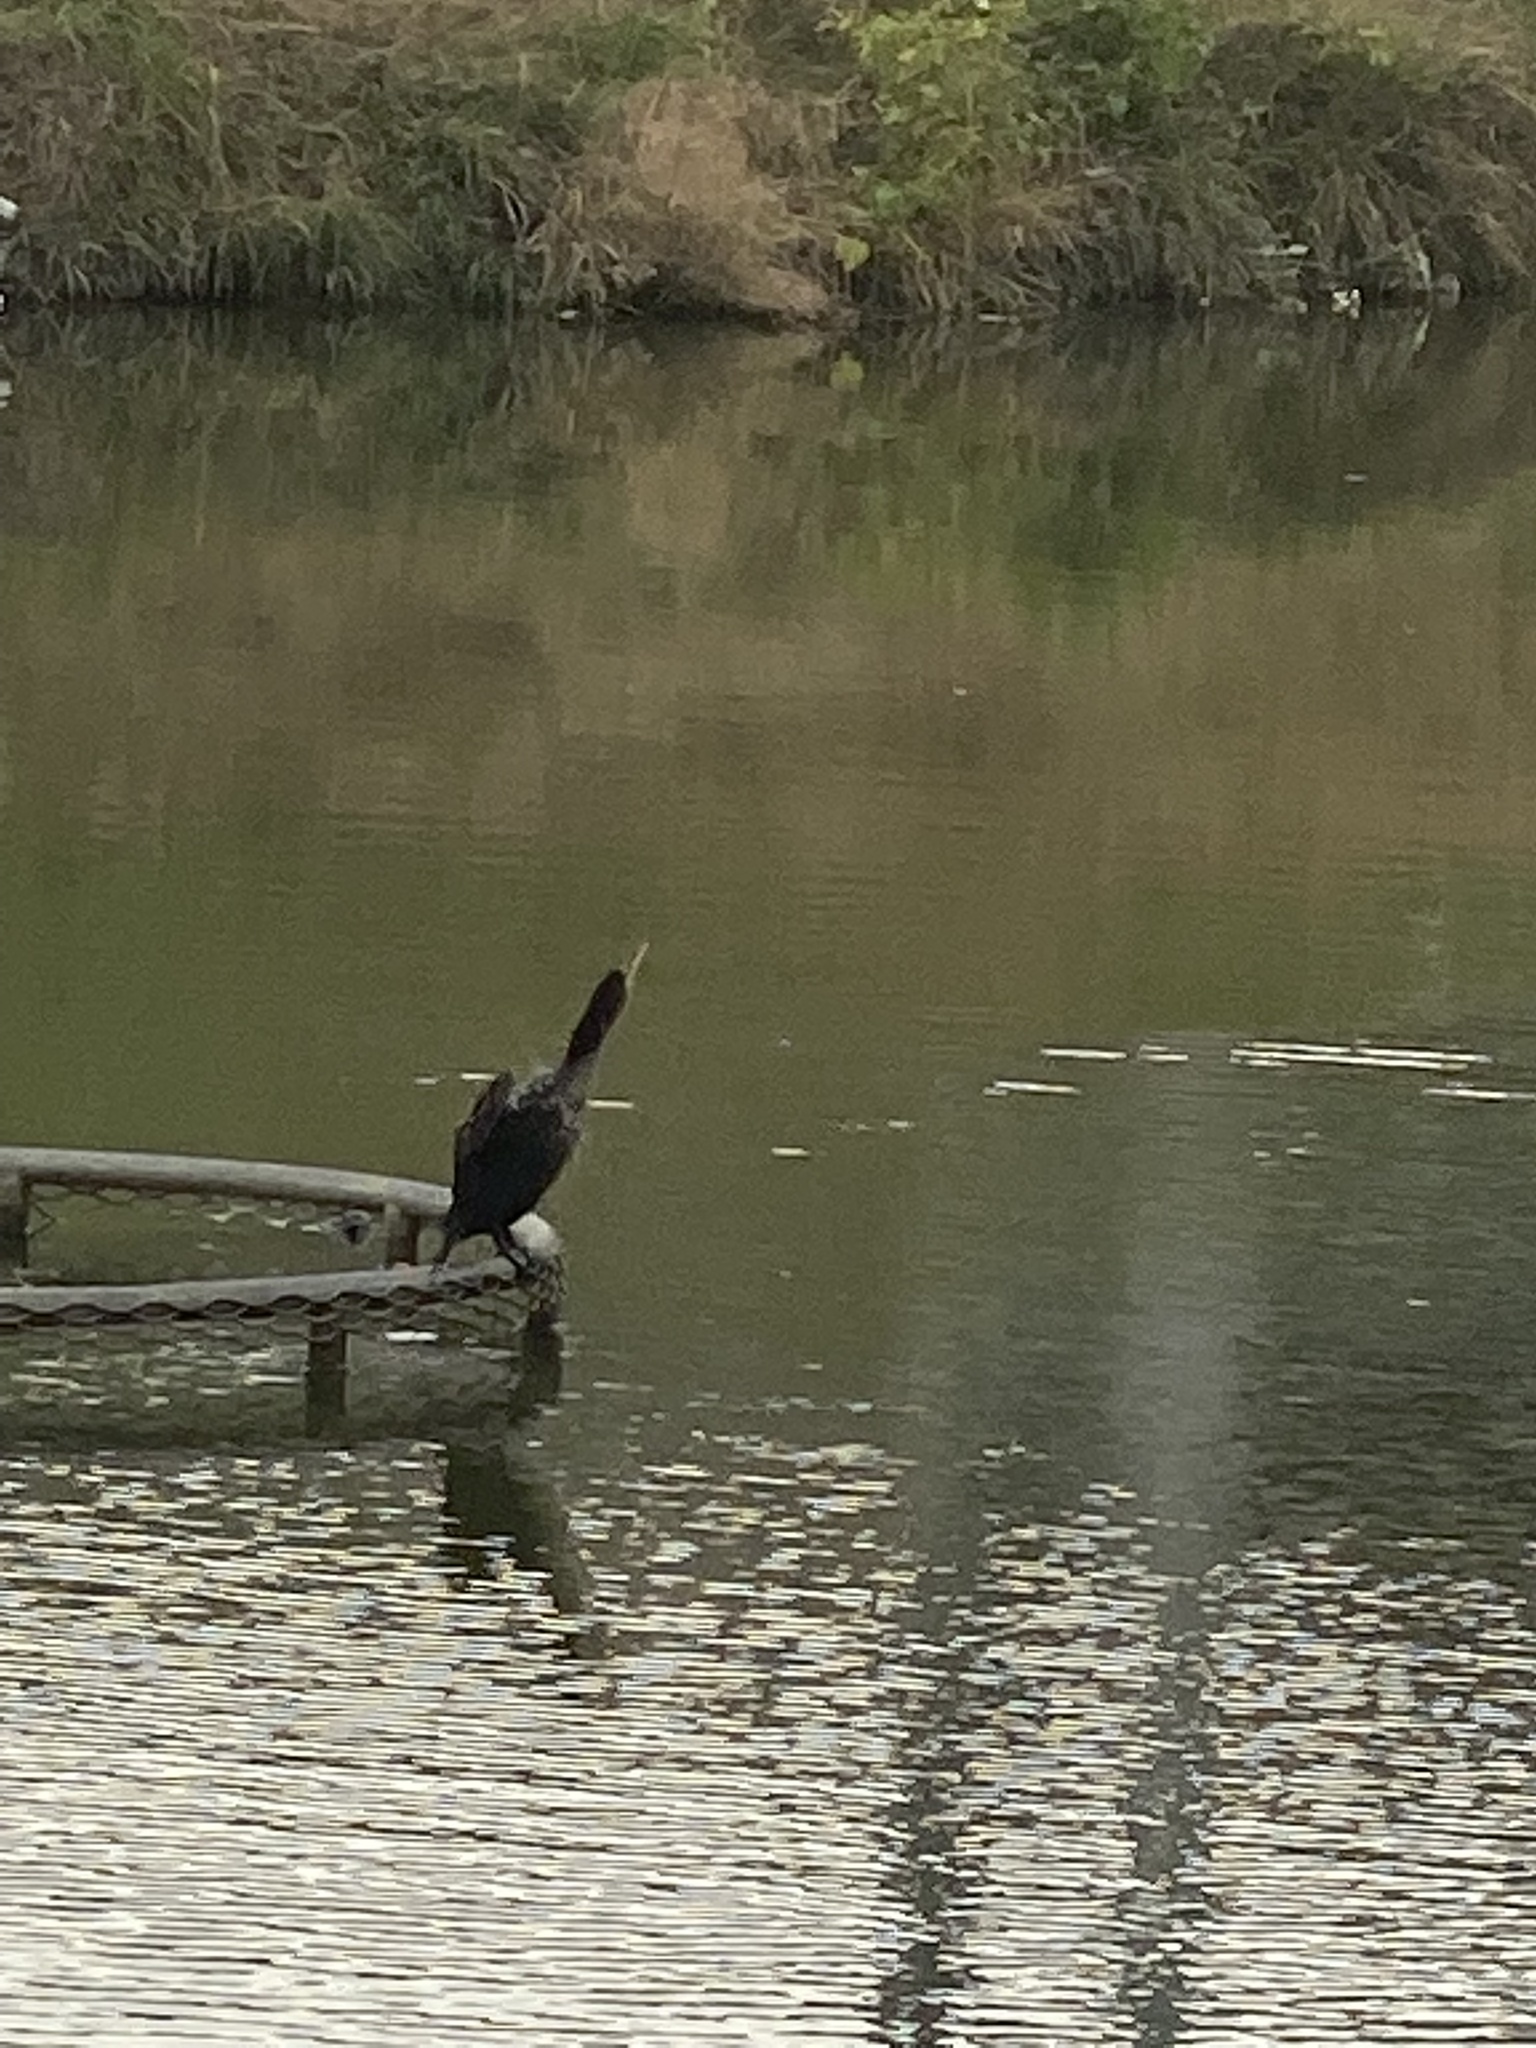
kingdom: Animalia
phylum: Chordata
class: Aves
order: Suliformes
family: Phalacrocoracidae
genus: Phalacrocorax
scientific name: Phalacrocorax brasilianus
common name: Neotropic cormorant
